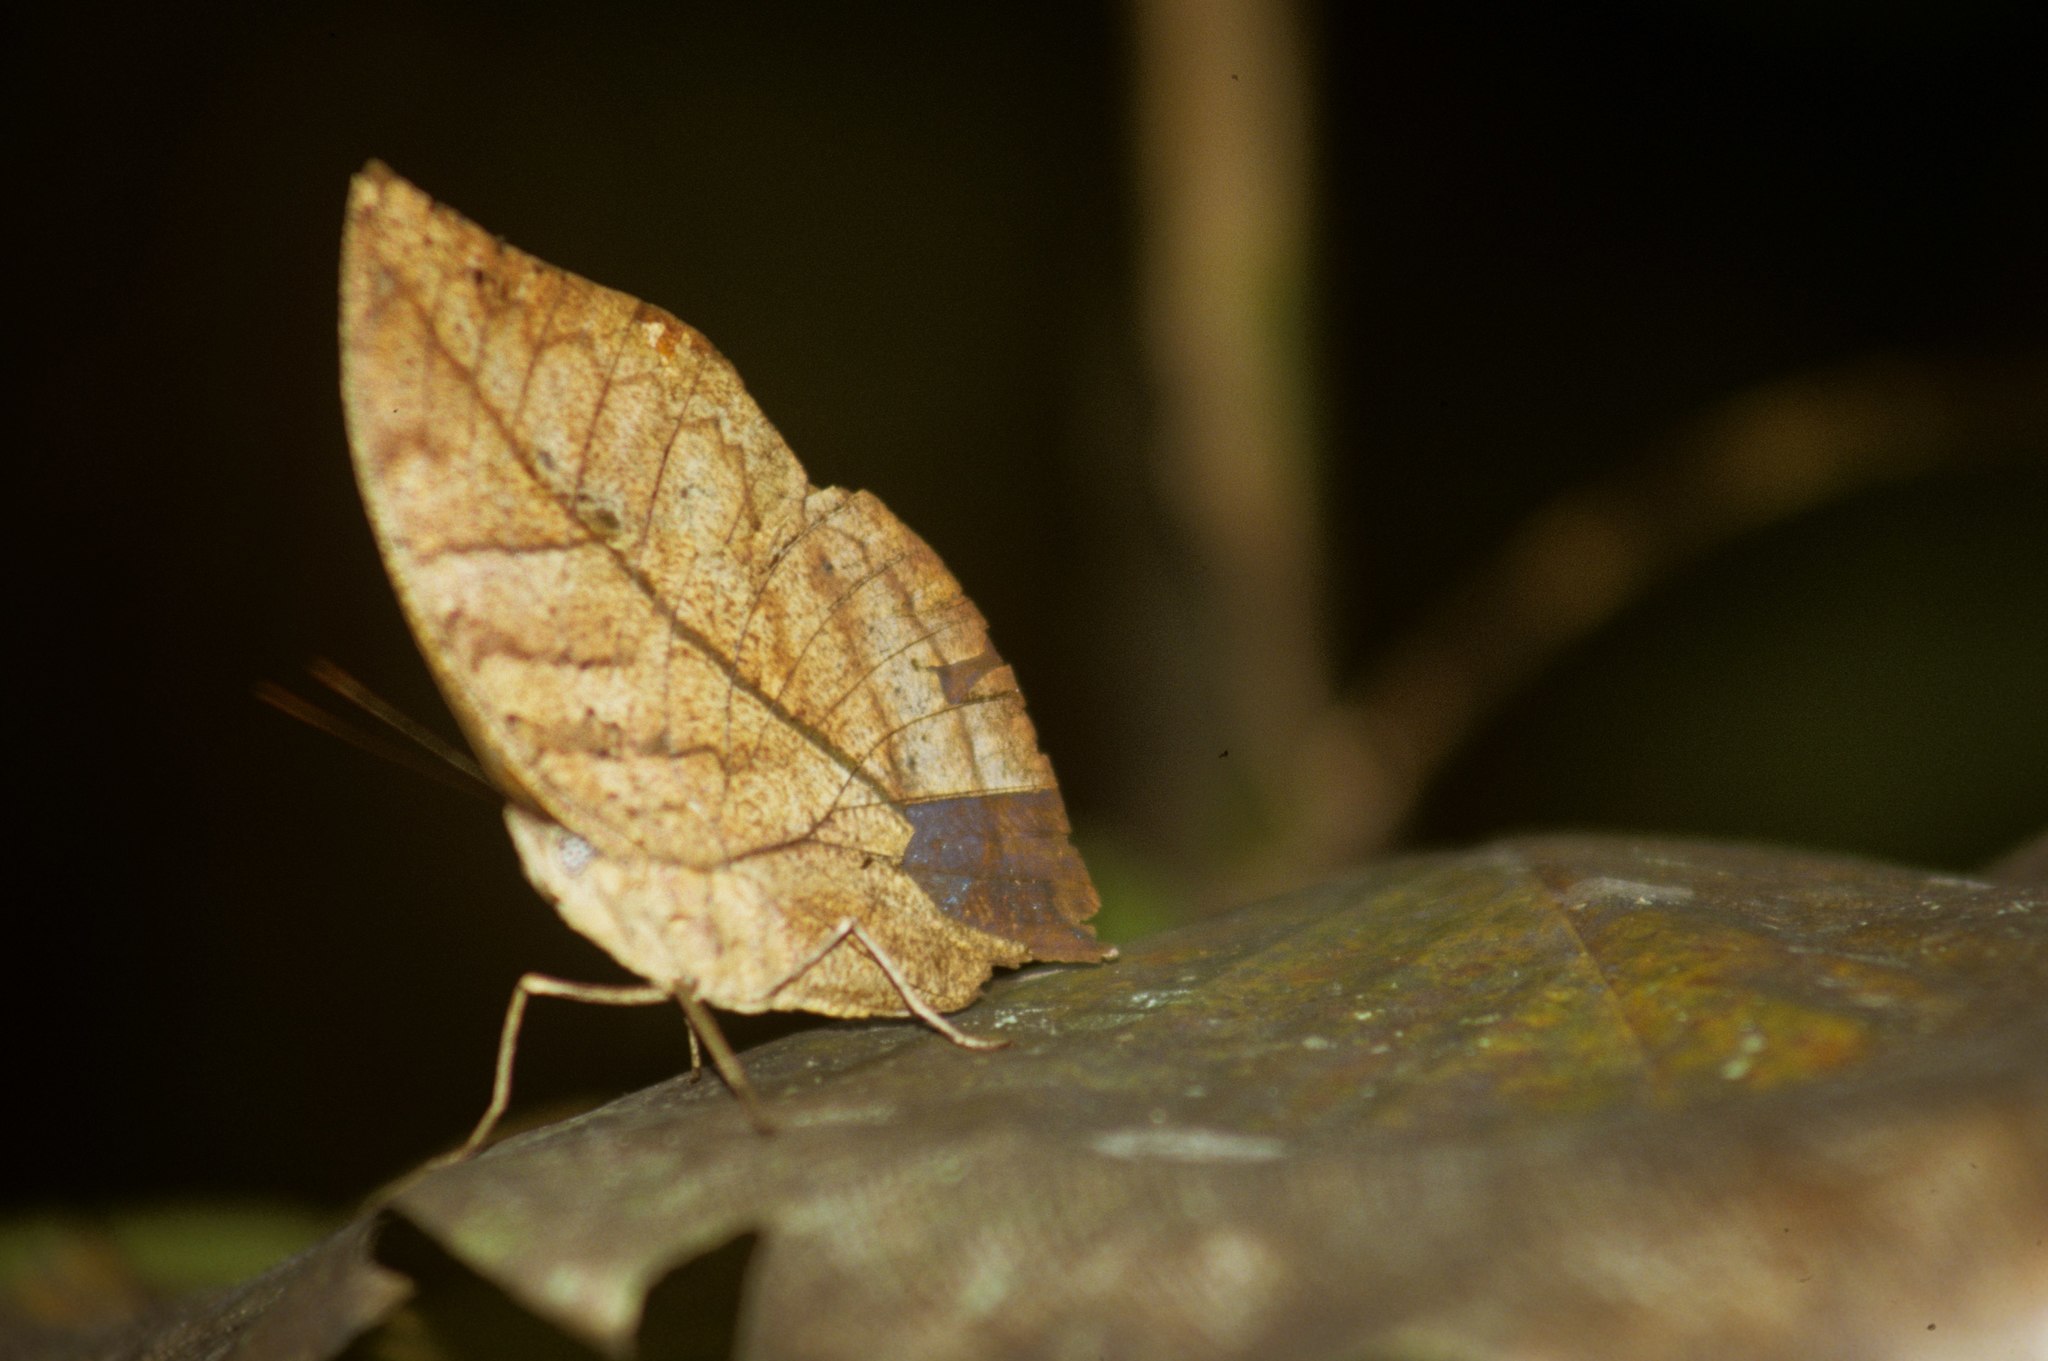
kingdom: Animalia
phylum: Arthropoda
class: Insecta
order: Lepidoptera
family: Nymphalidae
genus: Kallima
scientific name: Kallima paralekta
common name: Indian leafwing
